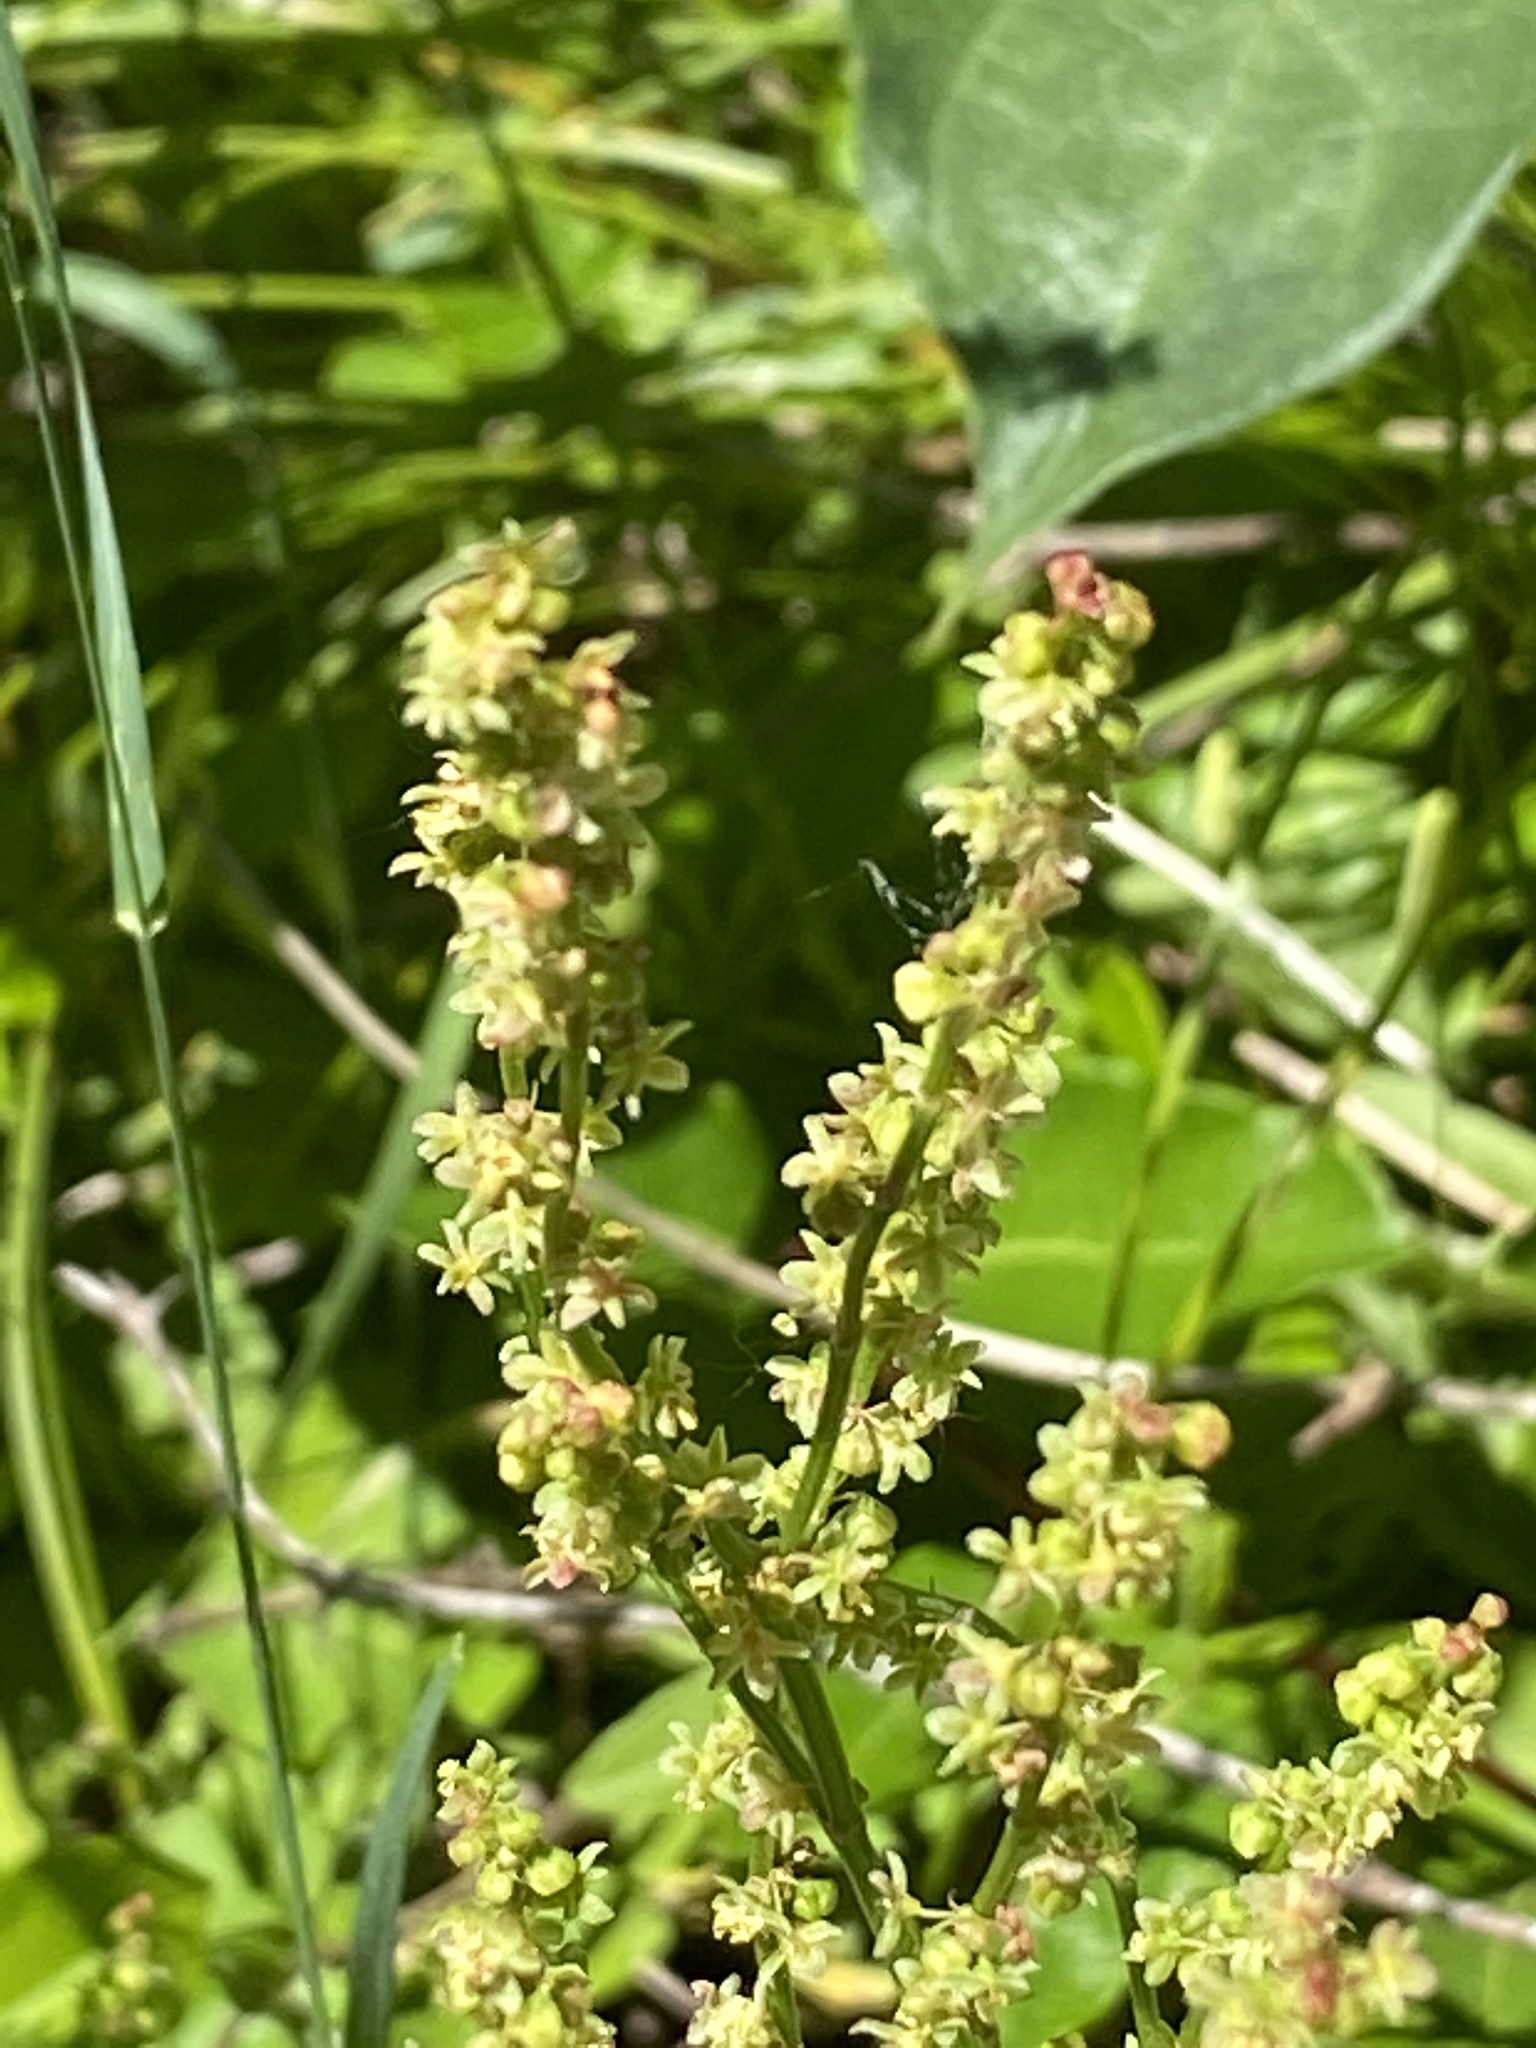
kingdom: Plantae
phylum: Tracheophyta
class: Magnoliopsida
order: Caryophyllales
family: Polygonaceae
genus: Rumex
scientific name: Rumex acetosella
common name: Common sheep sorrel
